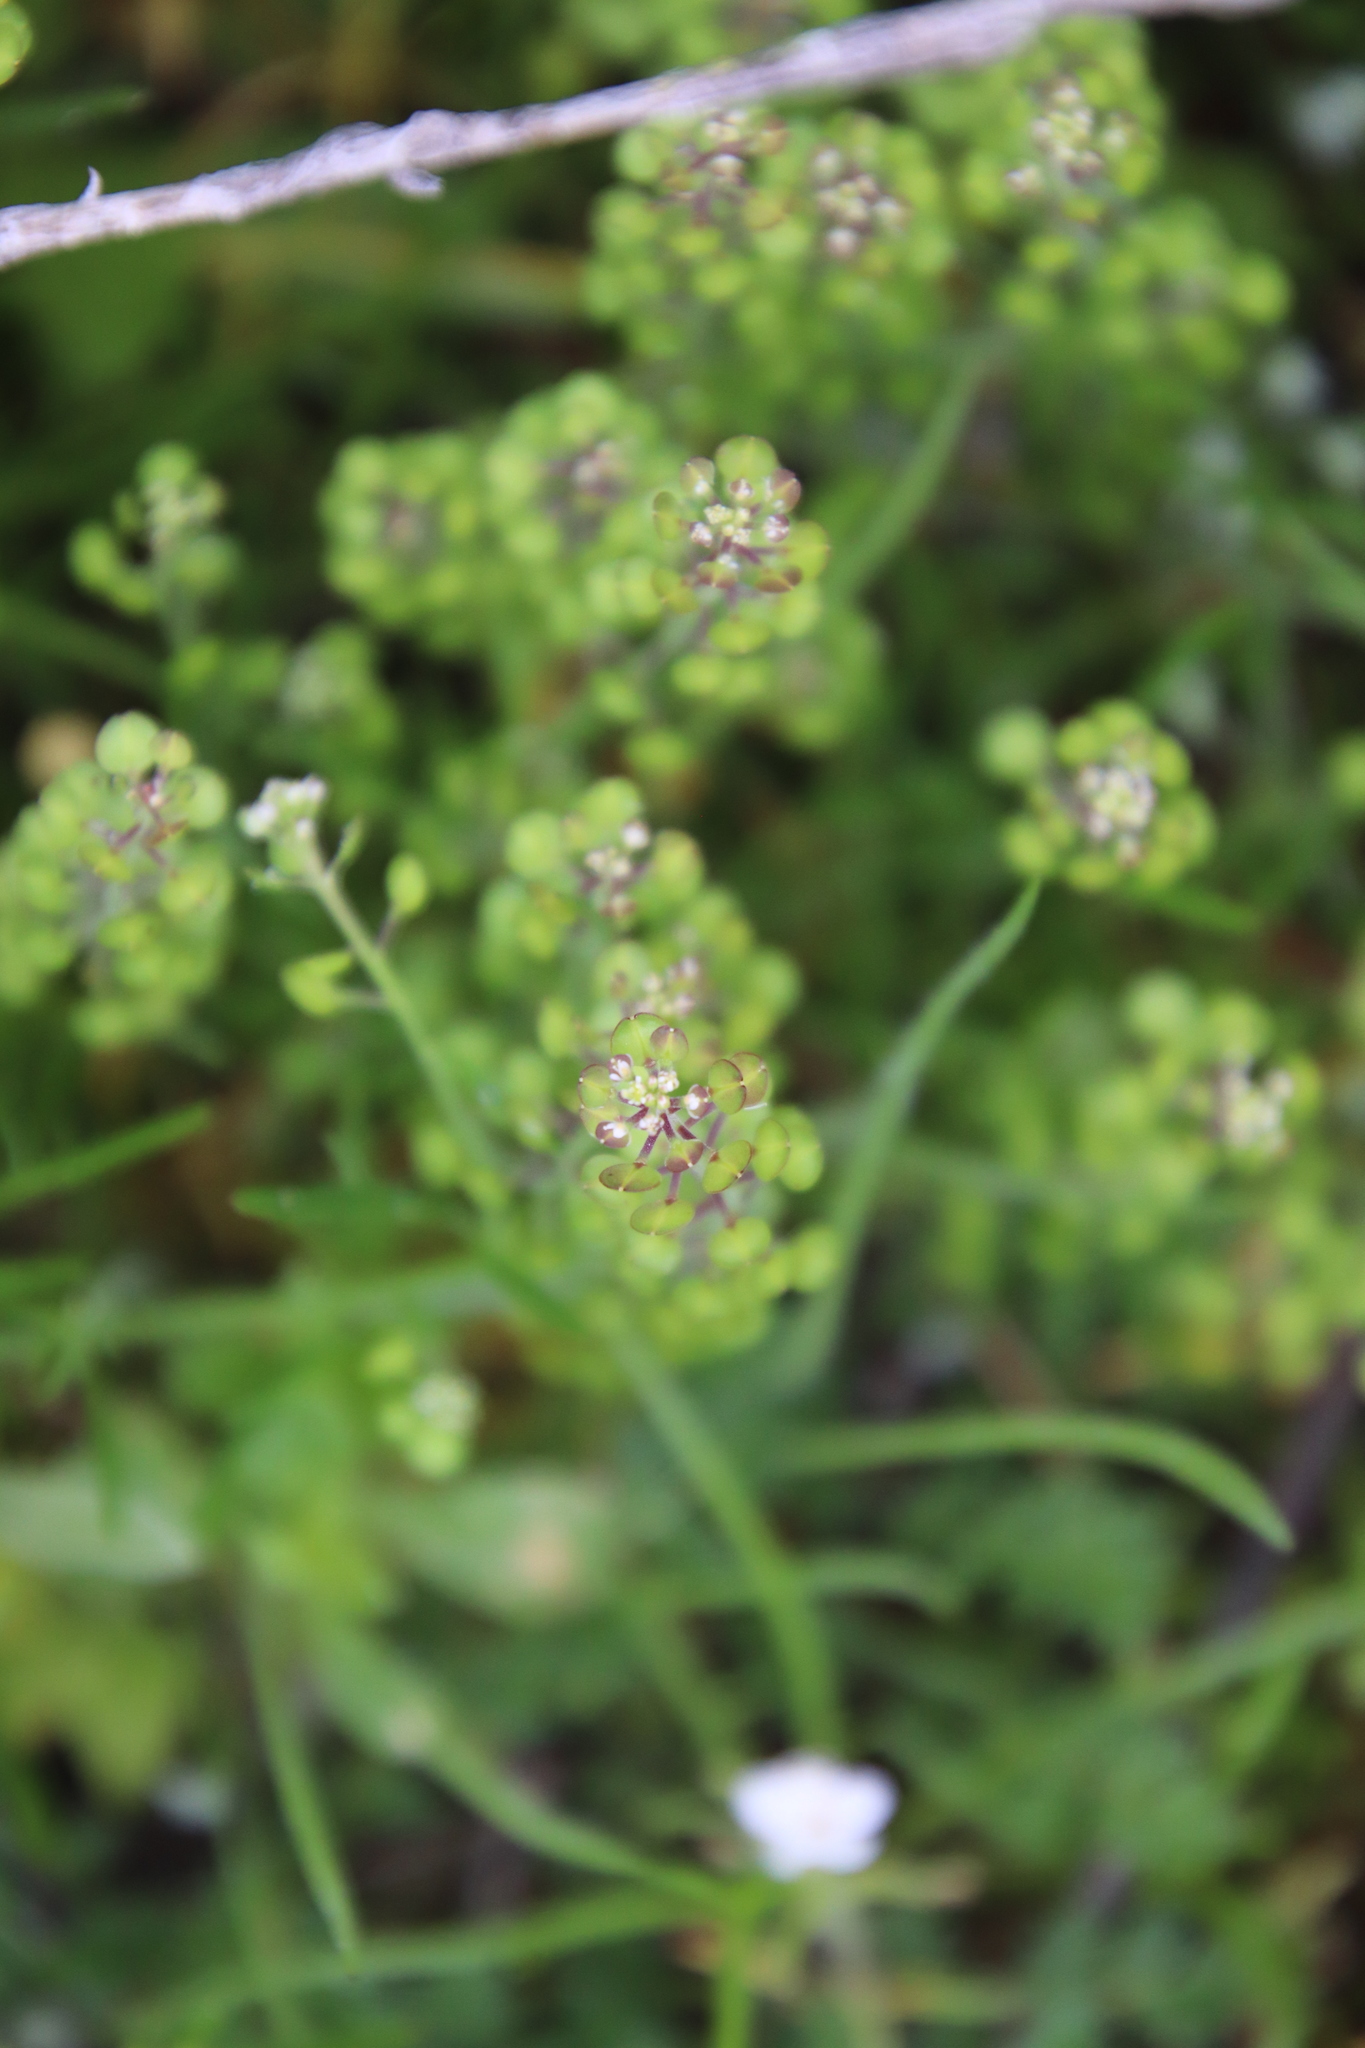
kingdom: Plantae
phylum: Tracheophyta
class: Magnoliopsida
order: Brassicales
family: Brassicaceae
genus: Lepidium
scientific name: Lepidium nitidum
